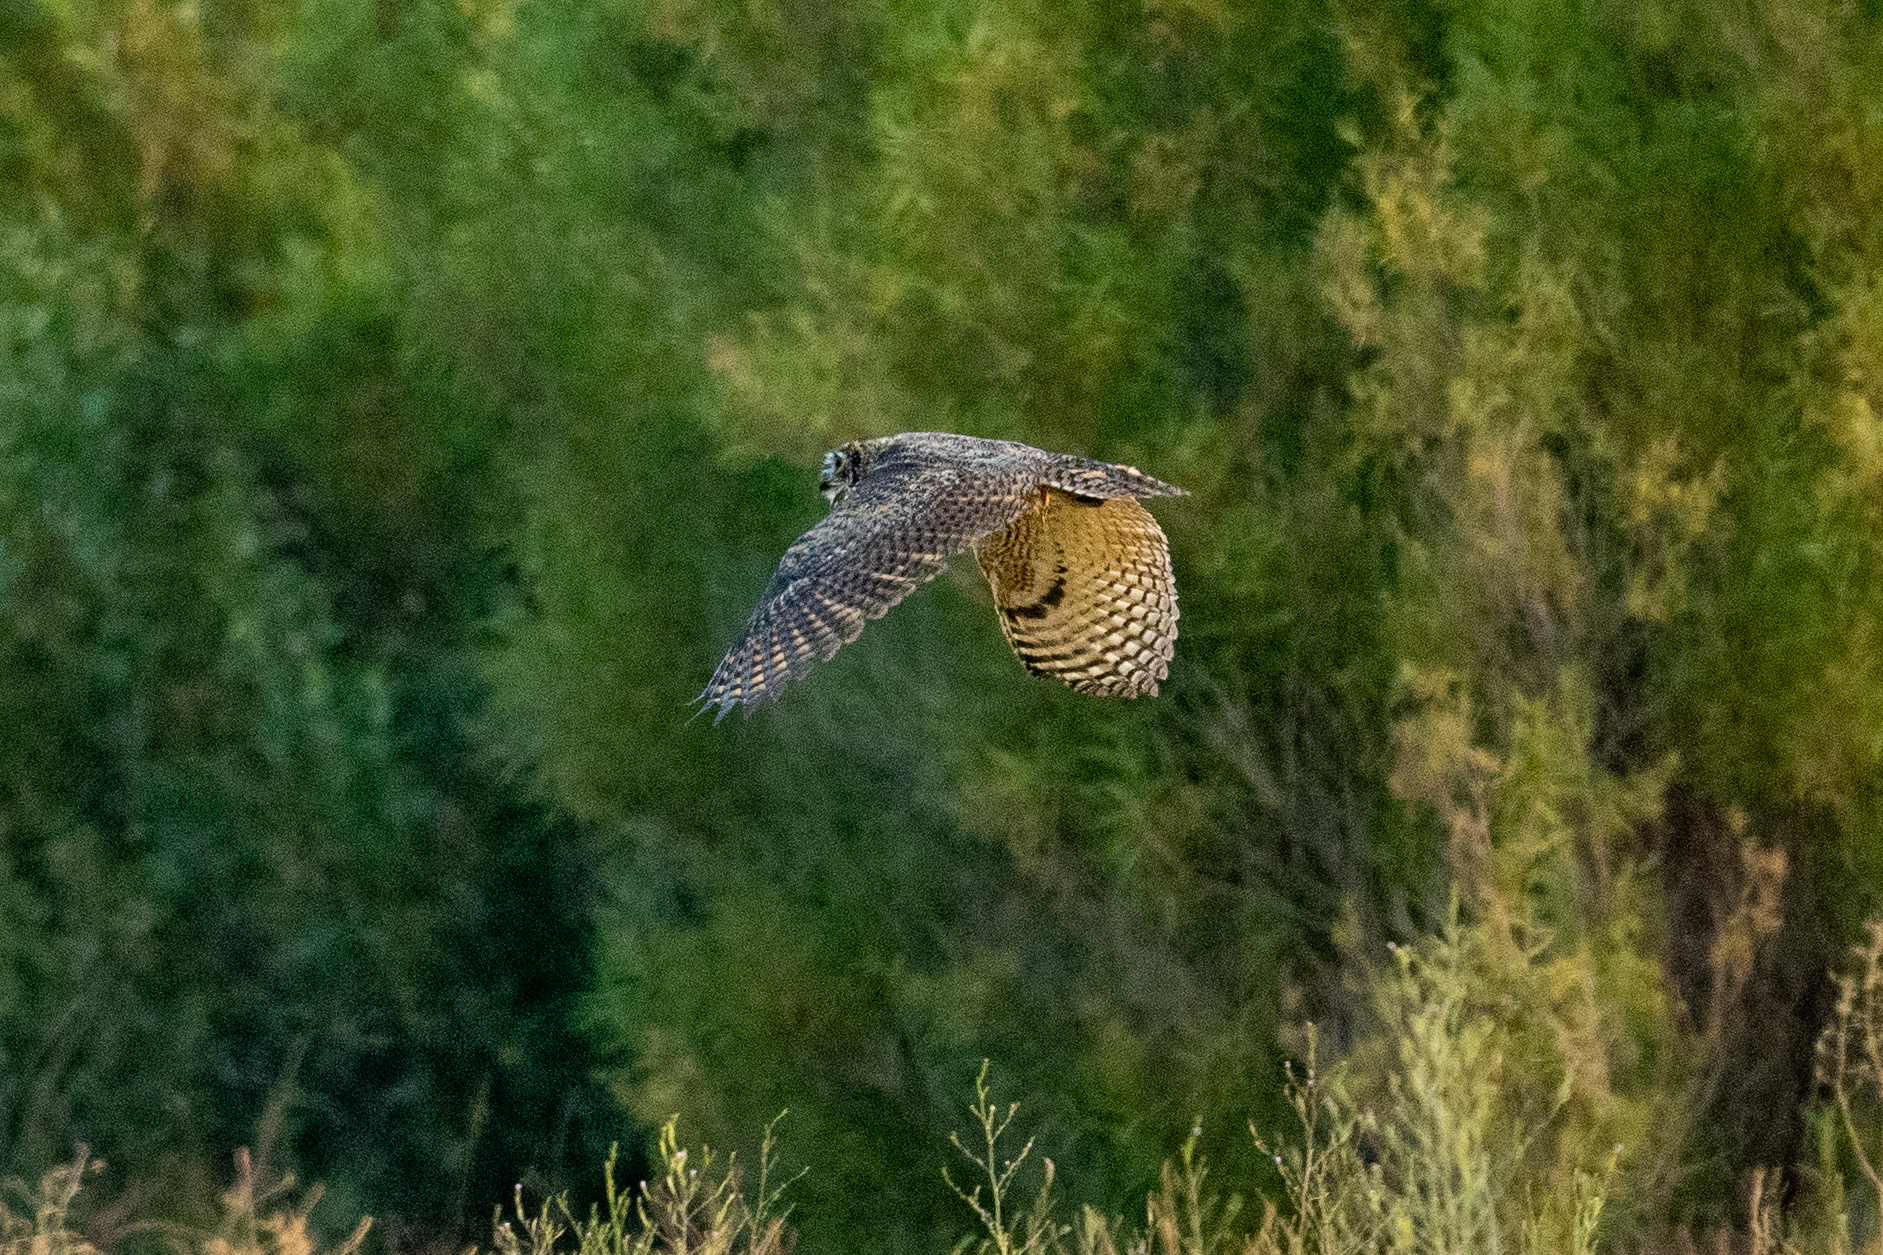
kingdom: Animalia
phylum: Chordata
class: Aves
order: Strigiformes
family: Strigidae
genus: Bubo
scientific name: Bubo virginianus
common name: Great horned owl
